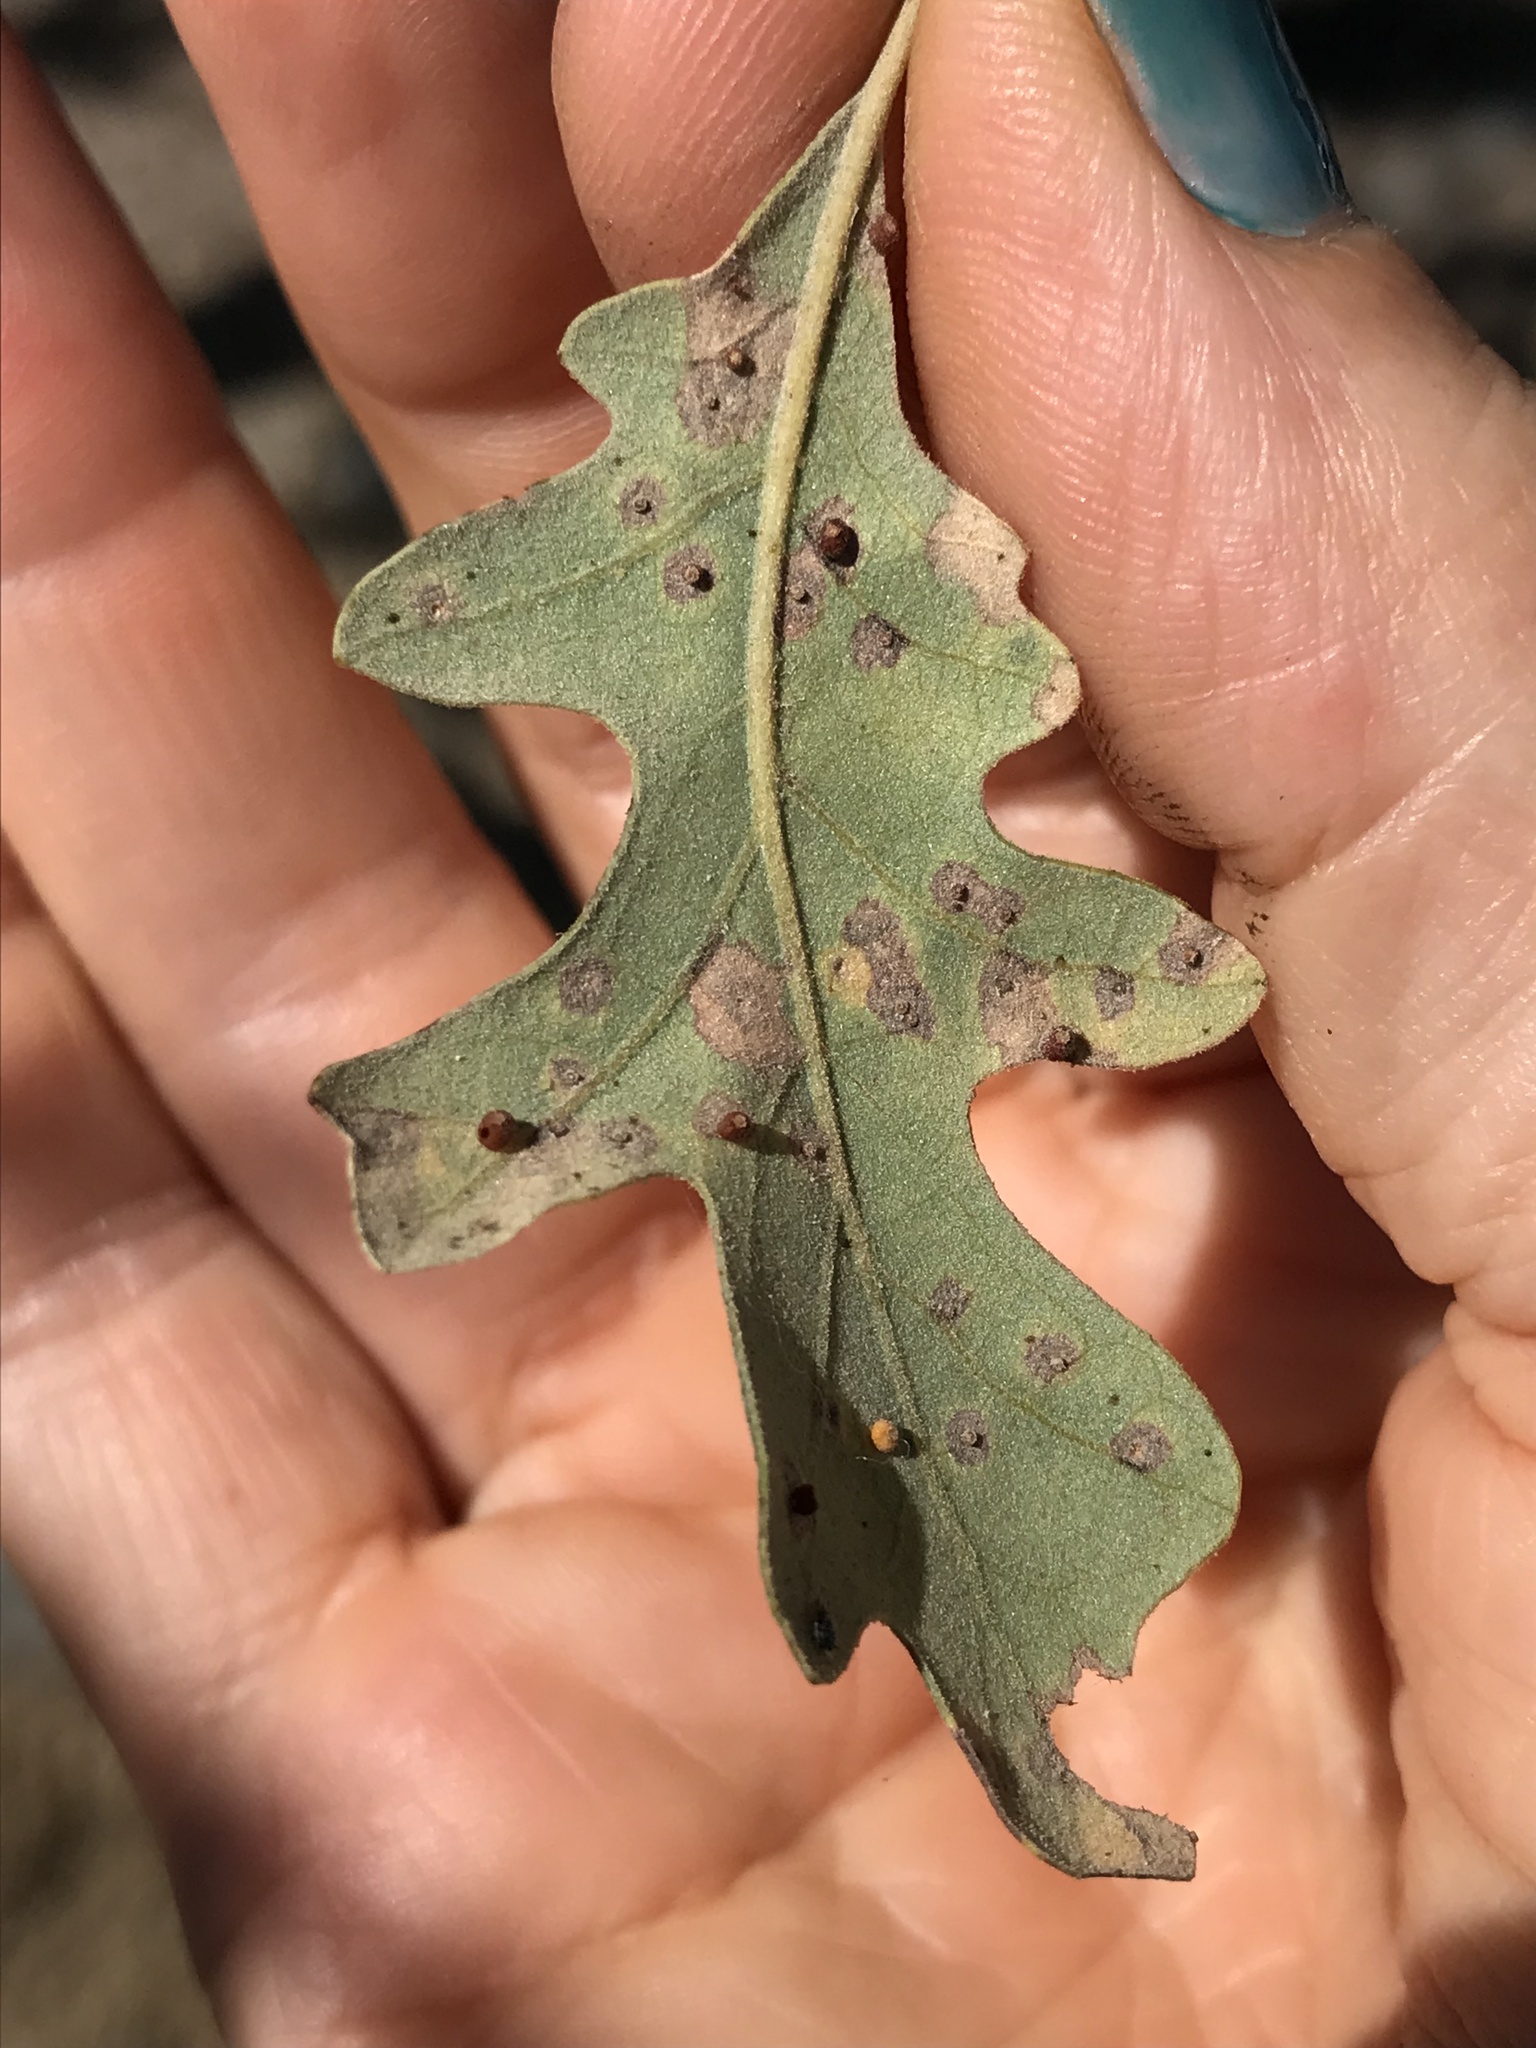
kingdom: Animalia
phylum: Arthropoda
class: Insecta
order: Hymenoptera
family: Cynipidae
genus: Neuroterus
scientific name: Neuroterus saltarius
